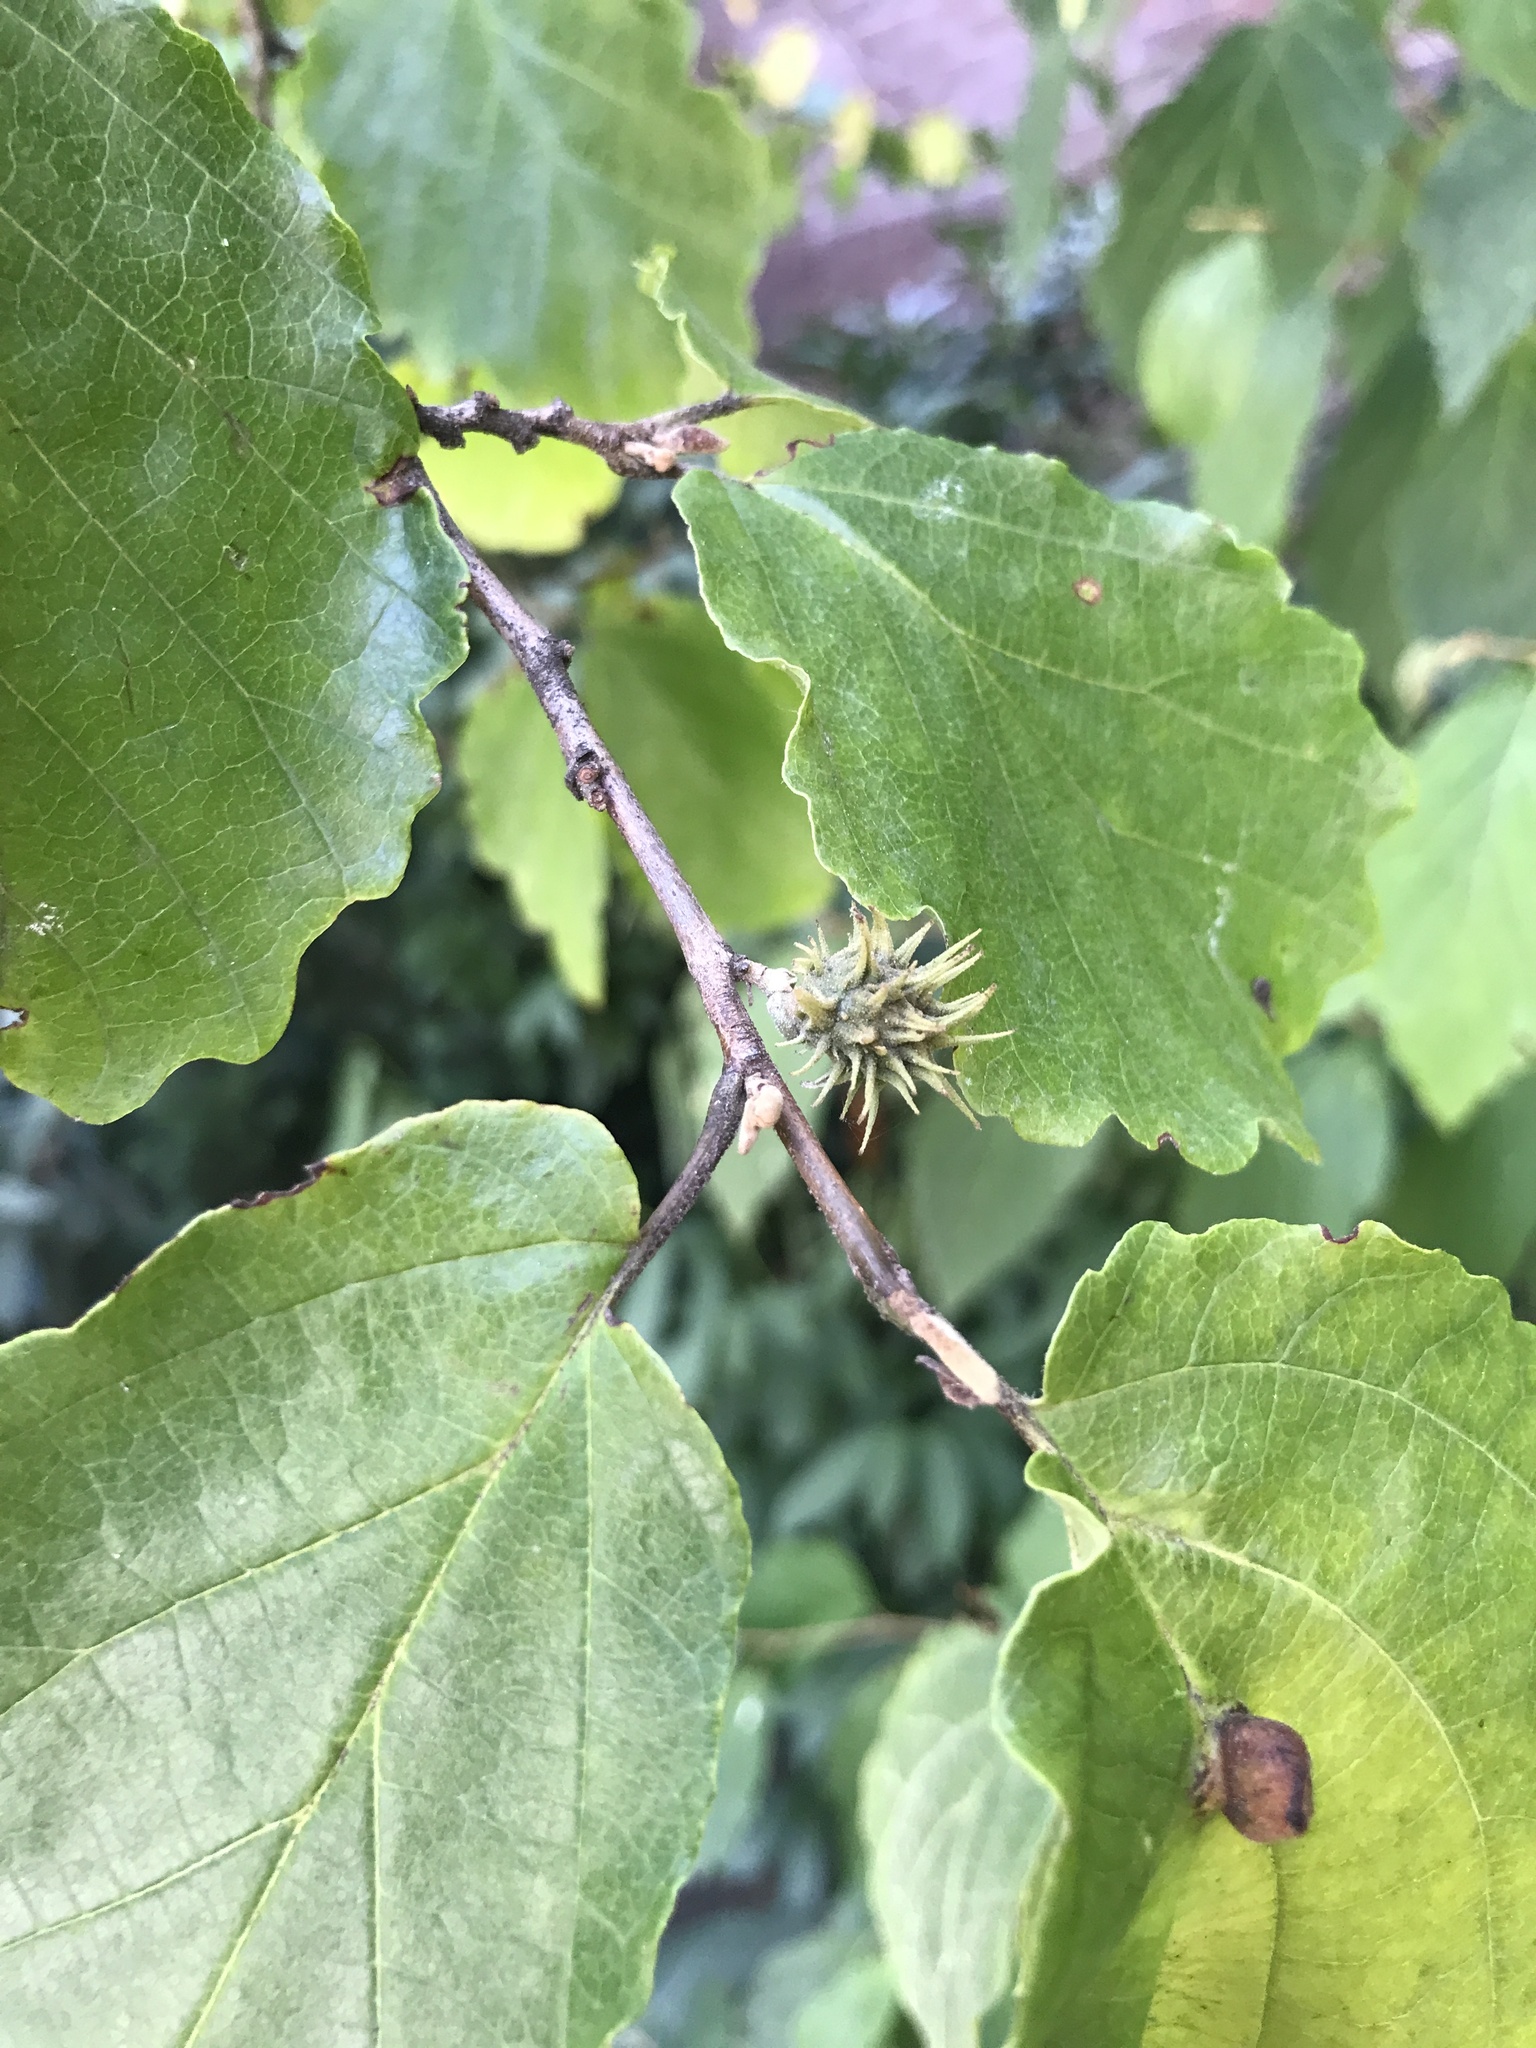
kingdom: Animalia
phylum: Arthropoda
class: Insecta
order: Hemiptera
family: Aphididae
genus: Hamamelistes
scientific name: Hamamelistes spinosus
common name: Witch hazel gall aphid
